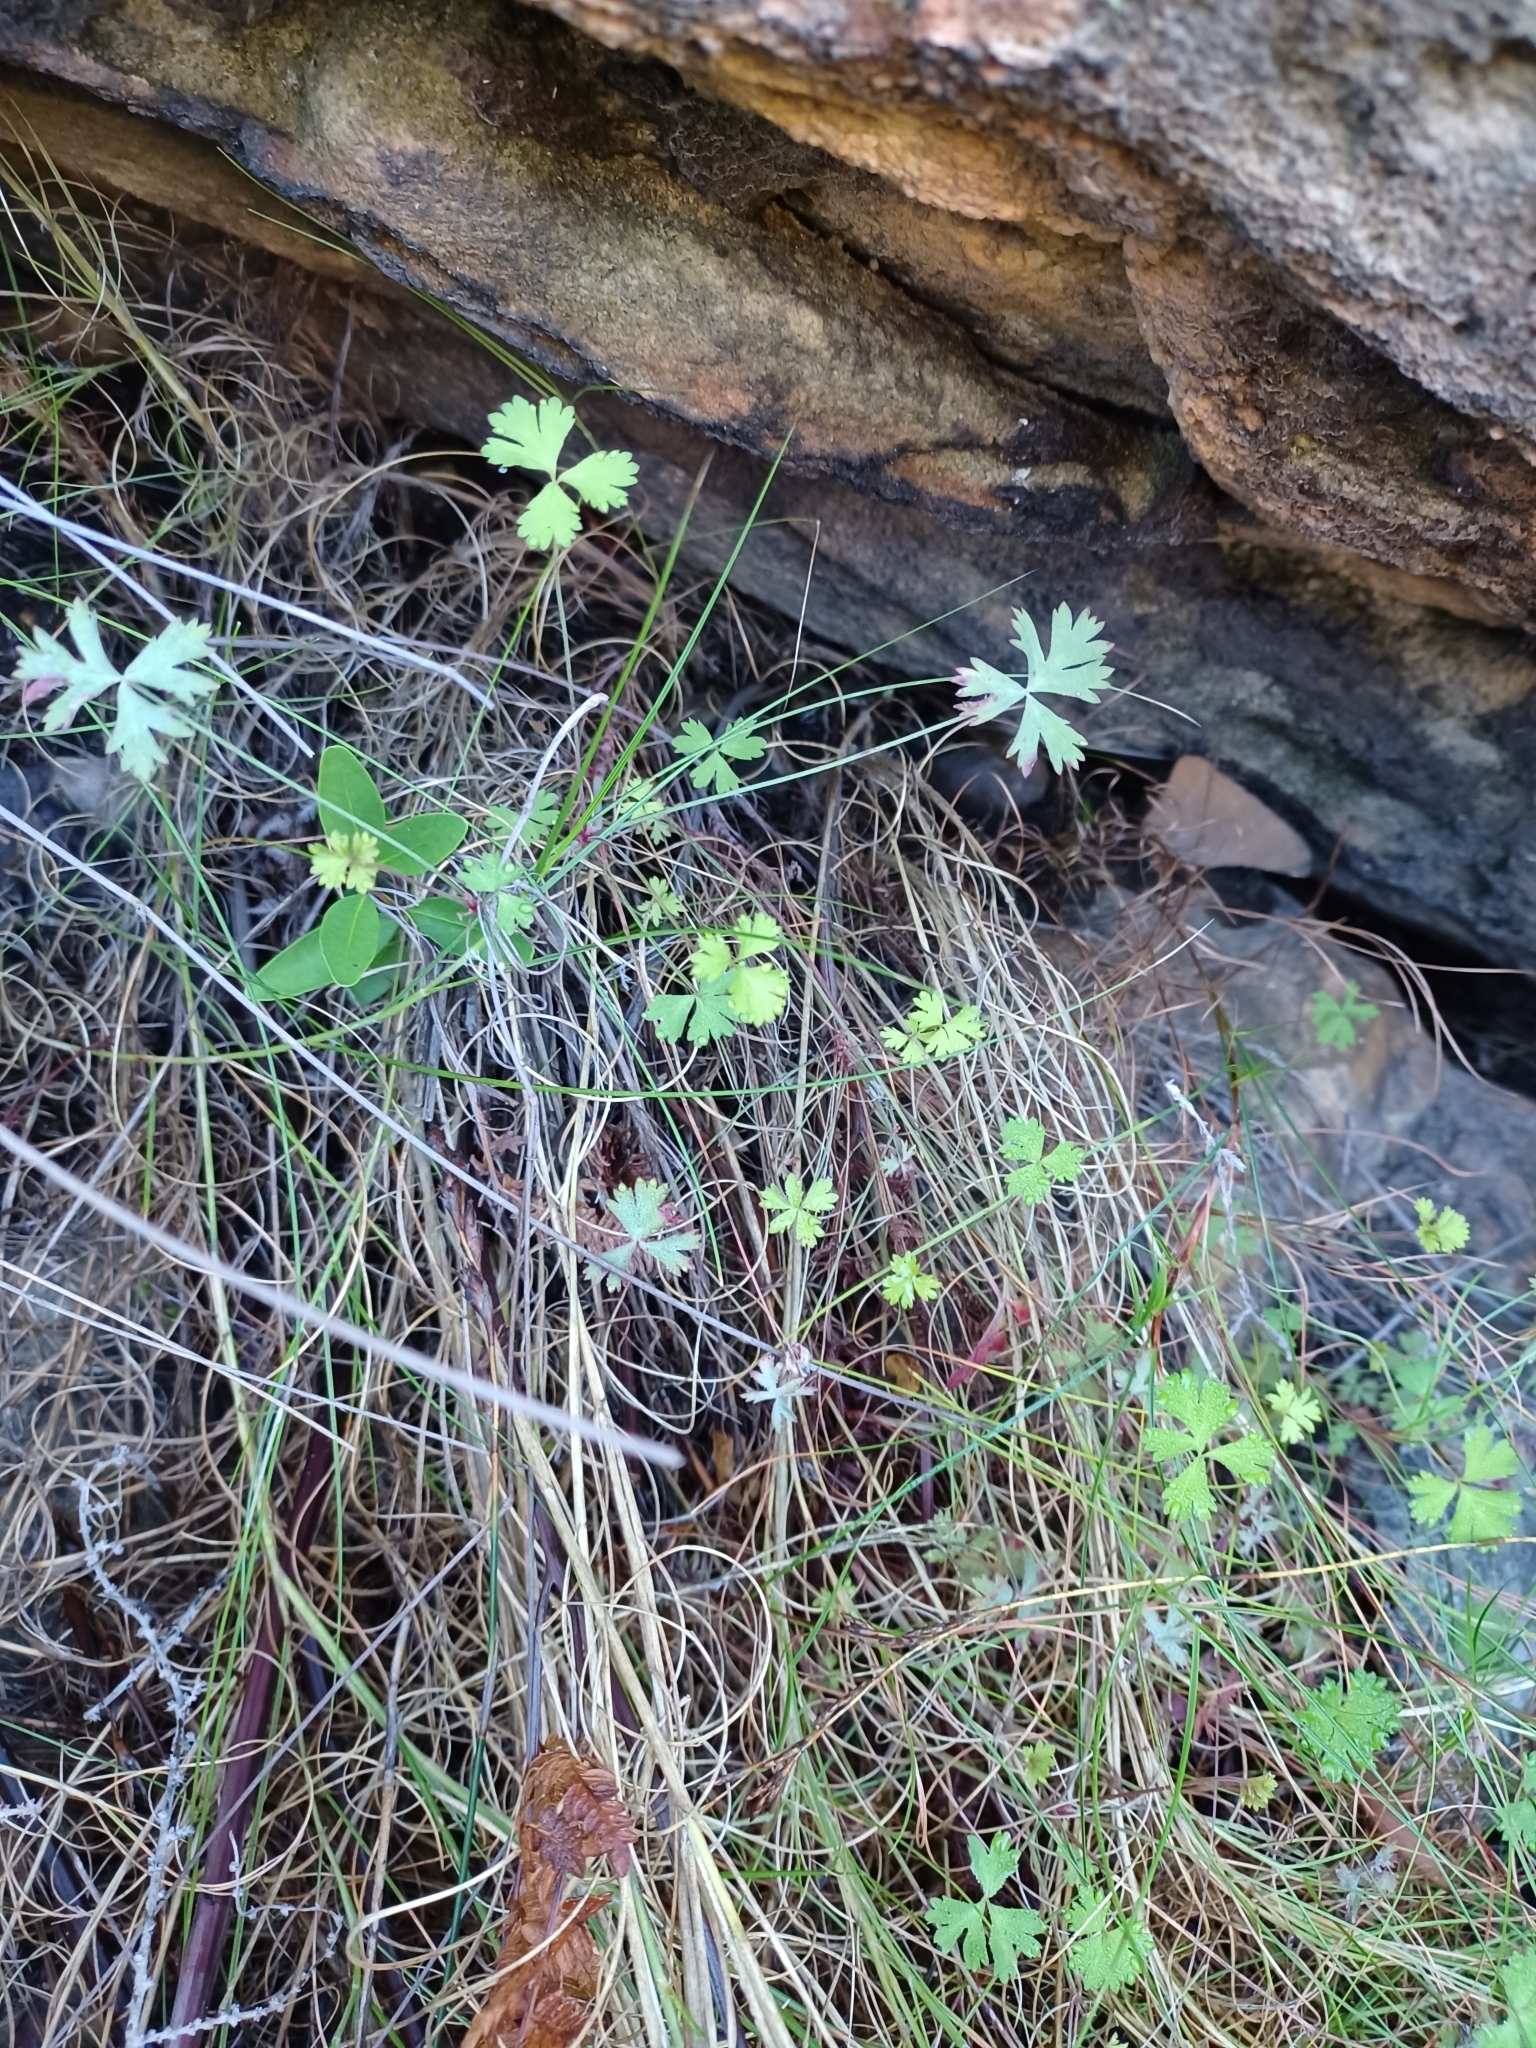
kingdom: Plantae
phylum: Tracheophyta
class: Magnoliopsida
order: Geraniales
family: Geraniaceae
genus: Pelargonium
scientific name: Pelargonium patulum
